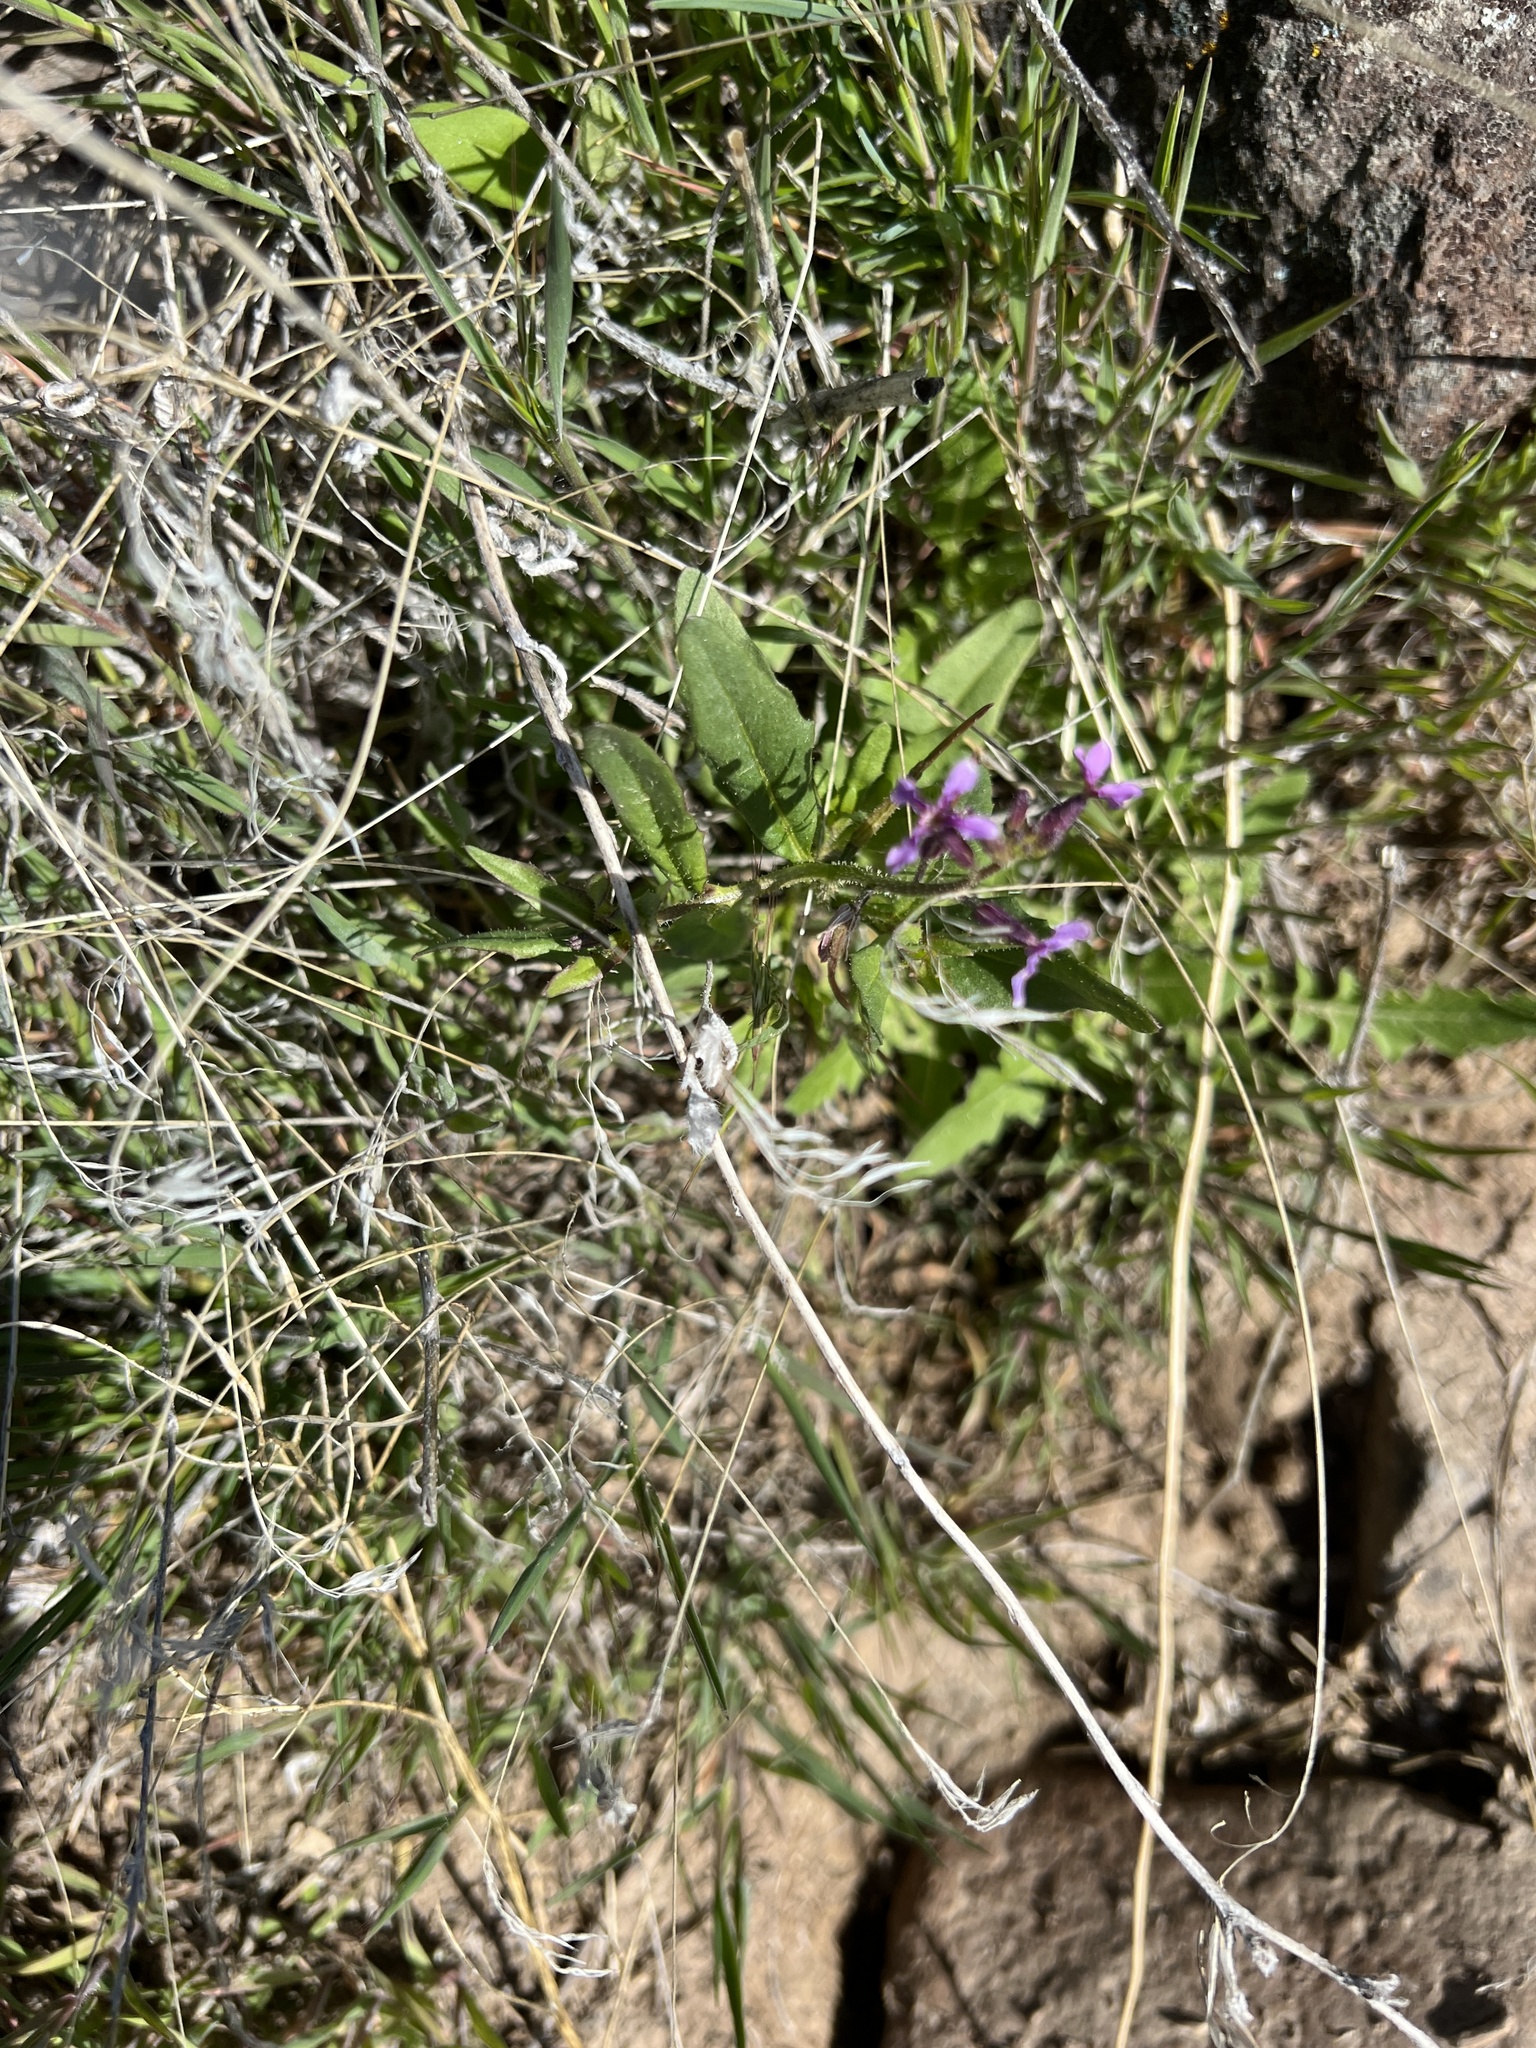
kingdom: Plantae
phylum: Tracheophyta
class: Magnoliopsida
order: Brassicales
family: Brassicaceae
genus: Chorispora
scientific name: Chorispora tenella
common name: Crossflower
